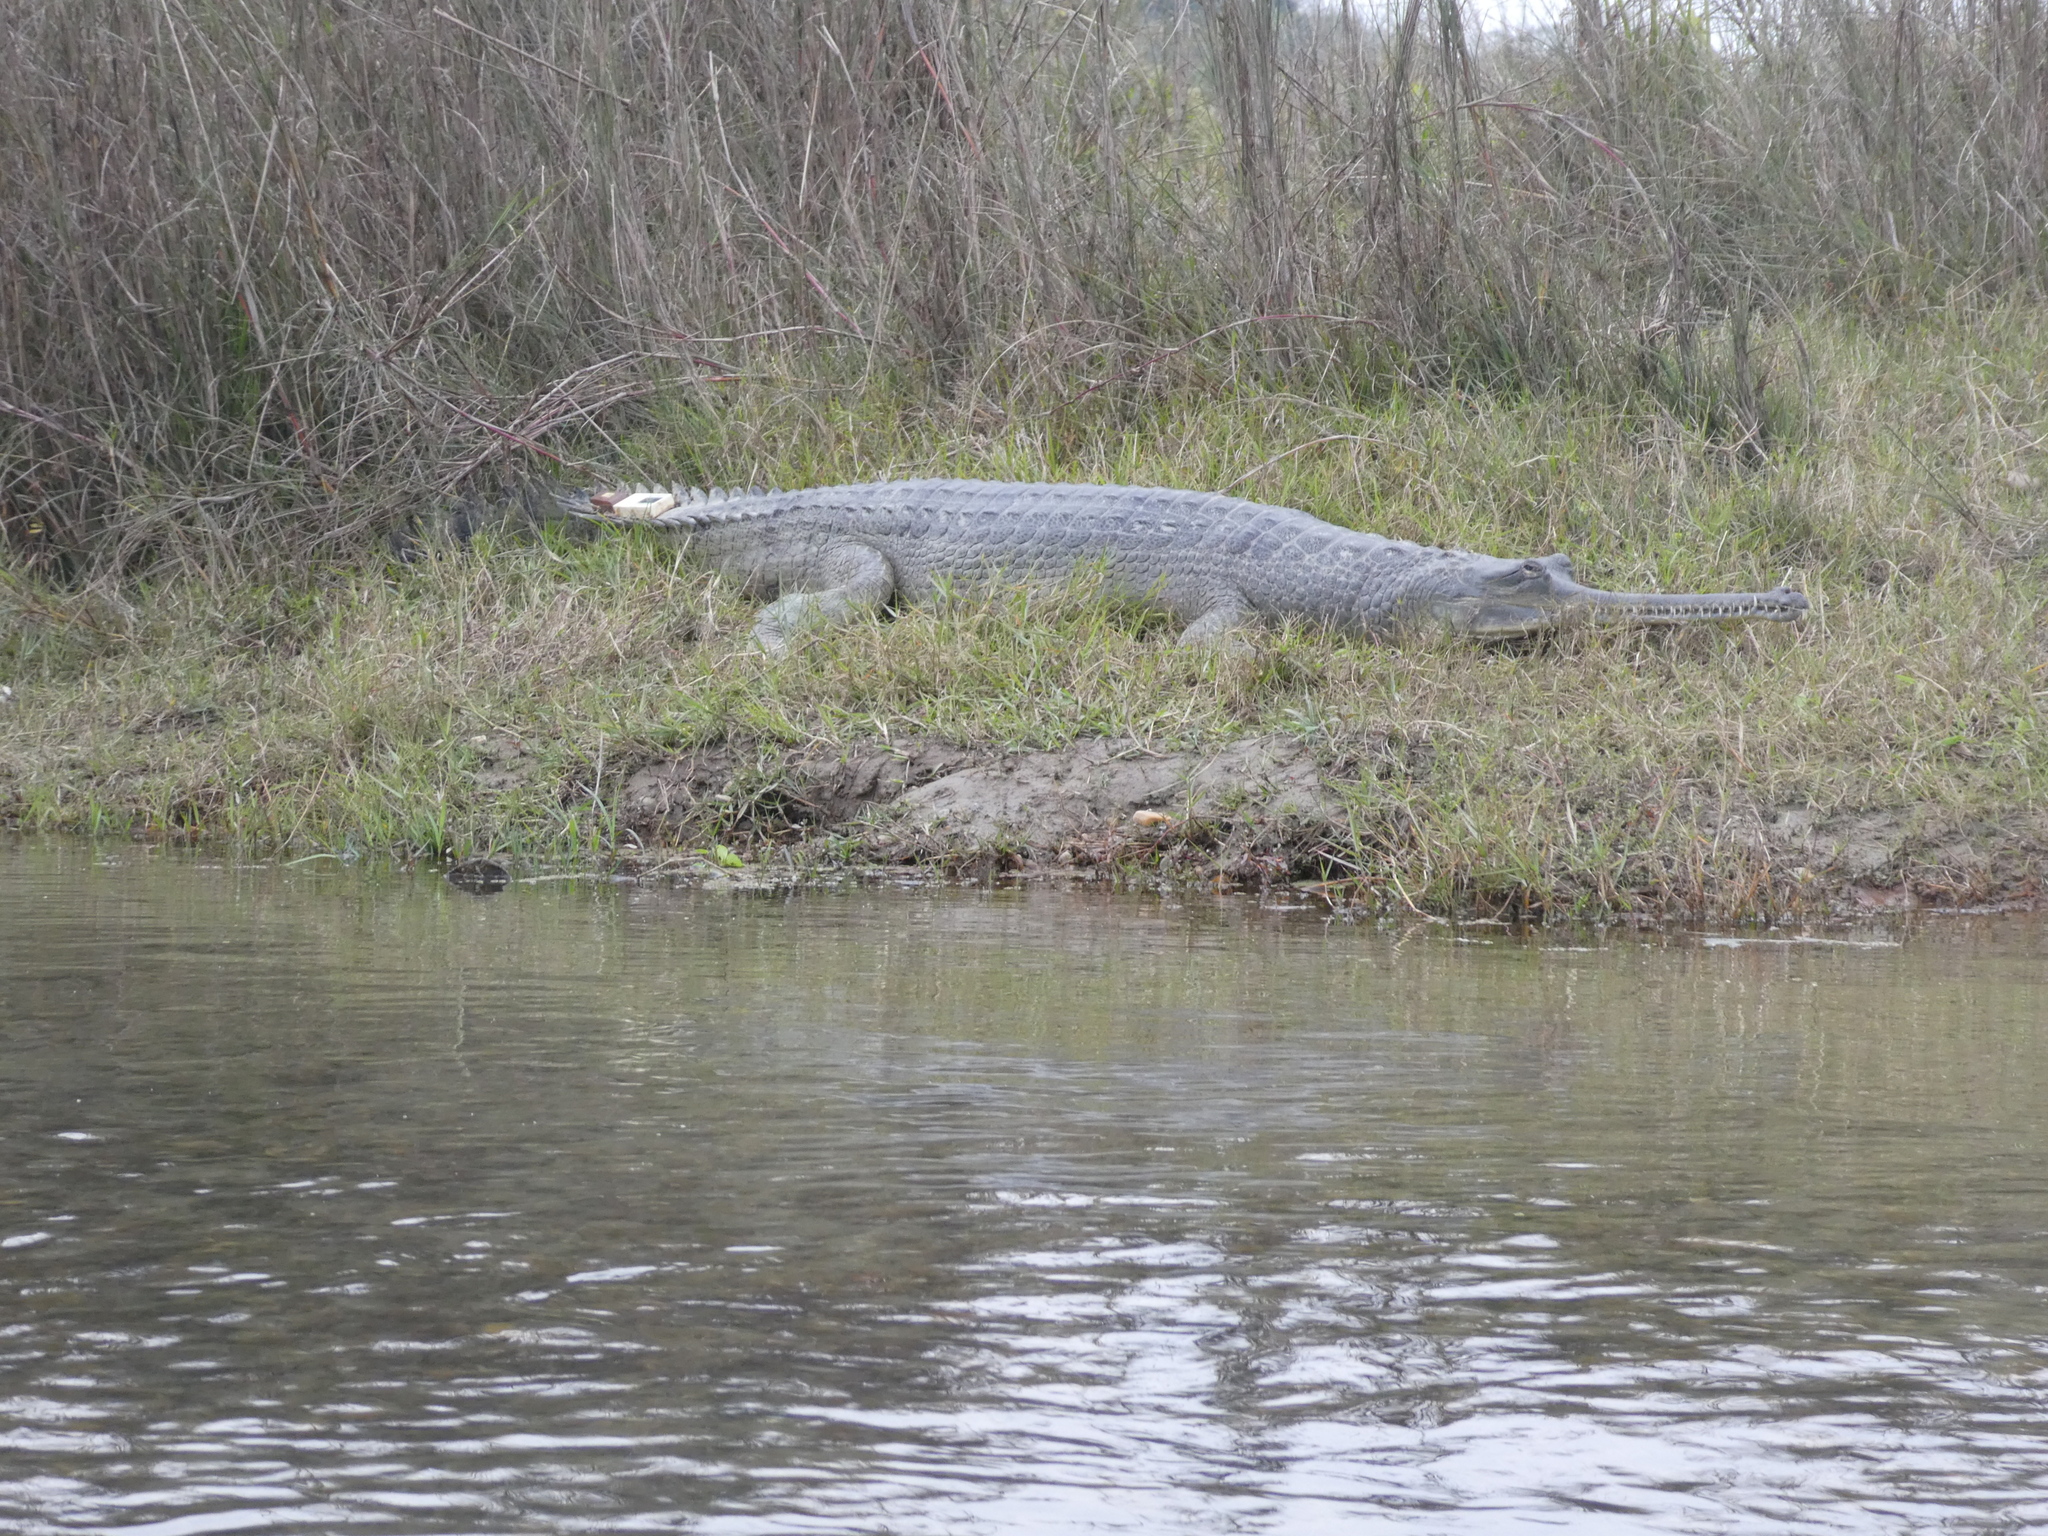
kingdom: Animalia
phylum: Chordata
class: Crocodylia
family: Gavialidae
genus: Gavialis
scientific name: Gavialis gangeticus
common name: Gharial
